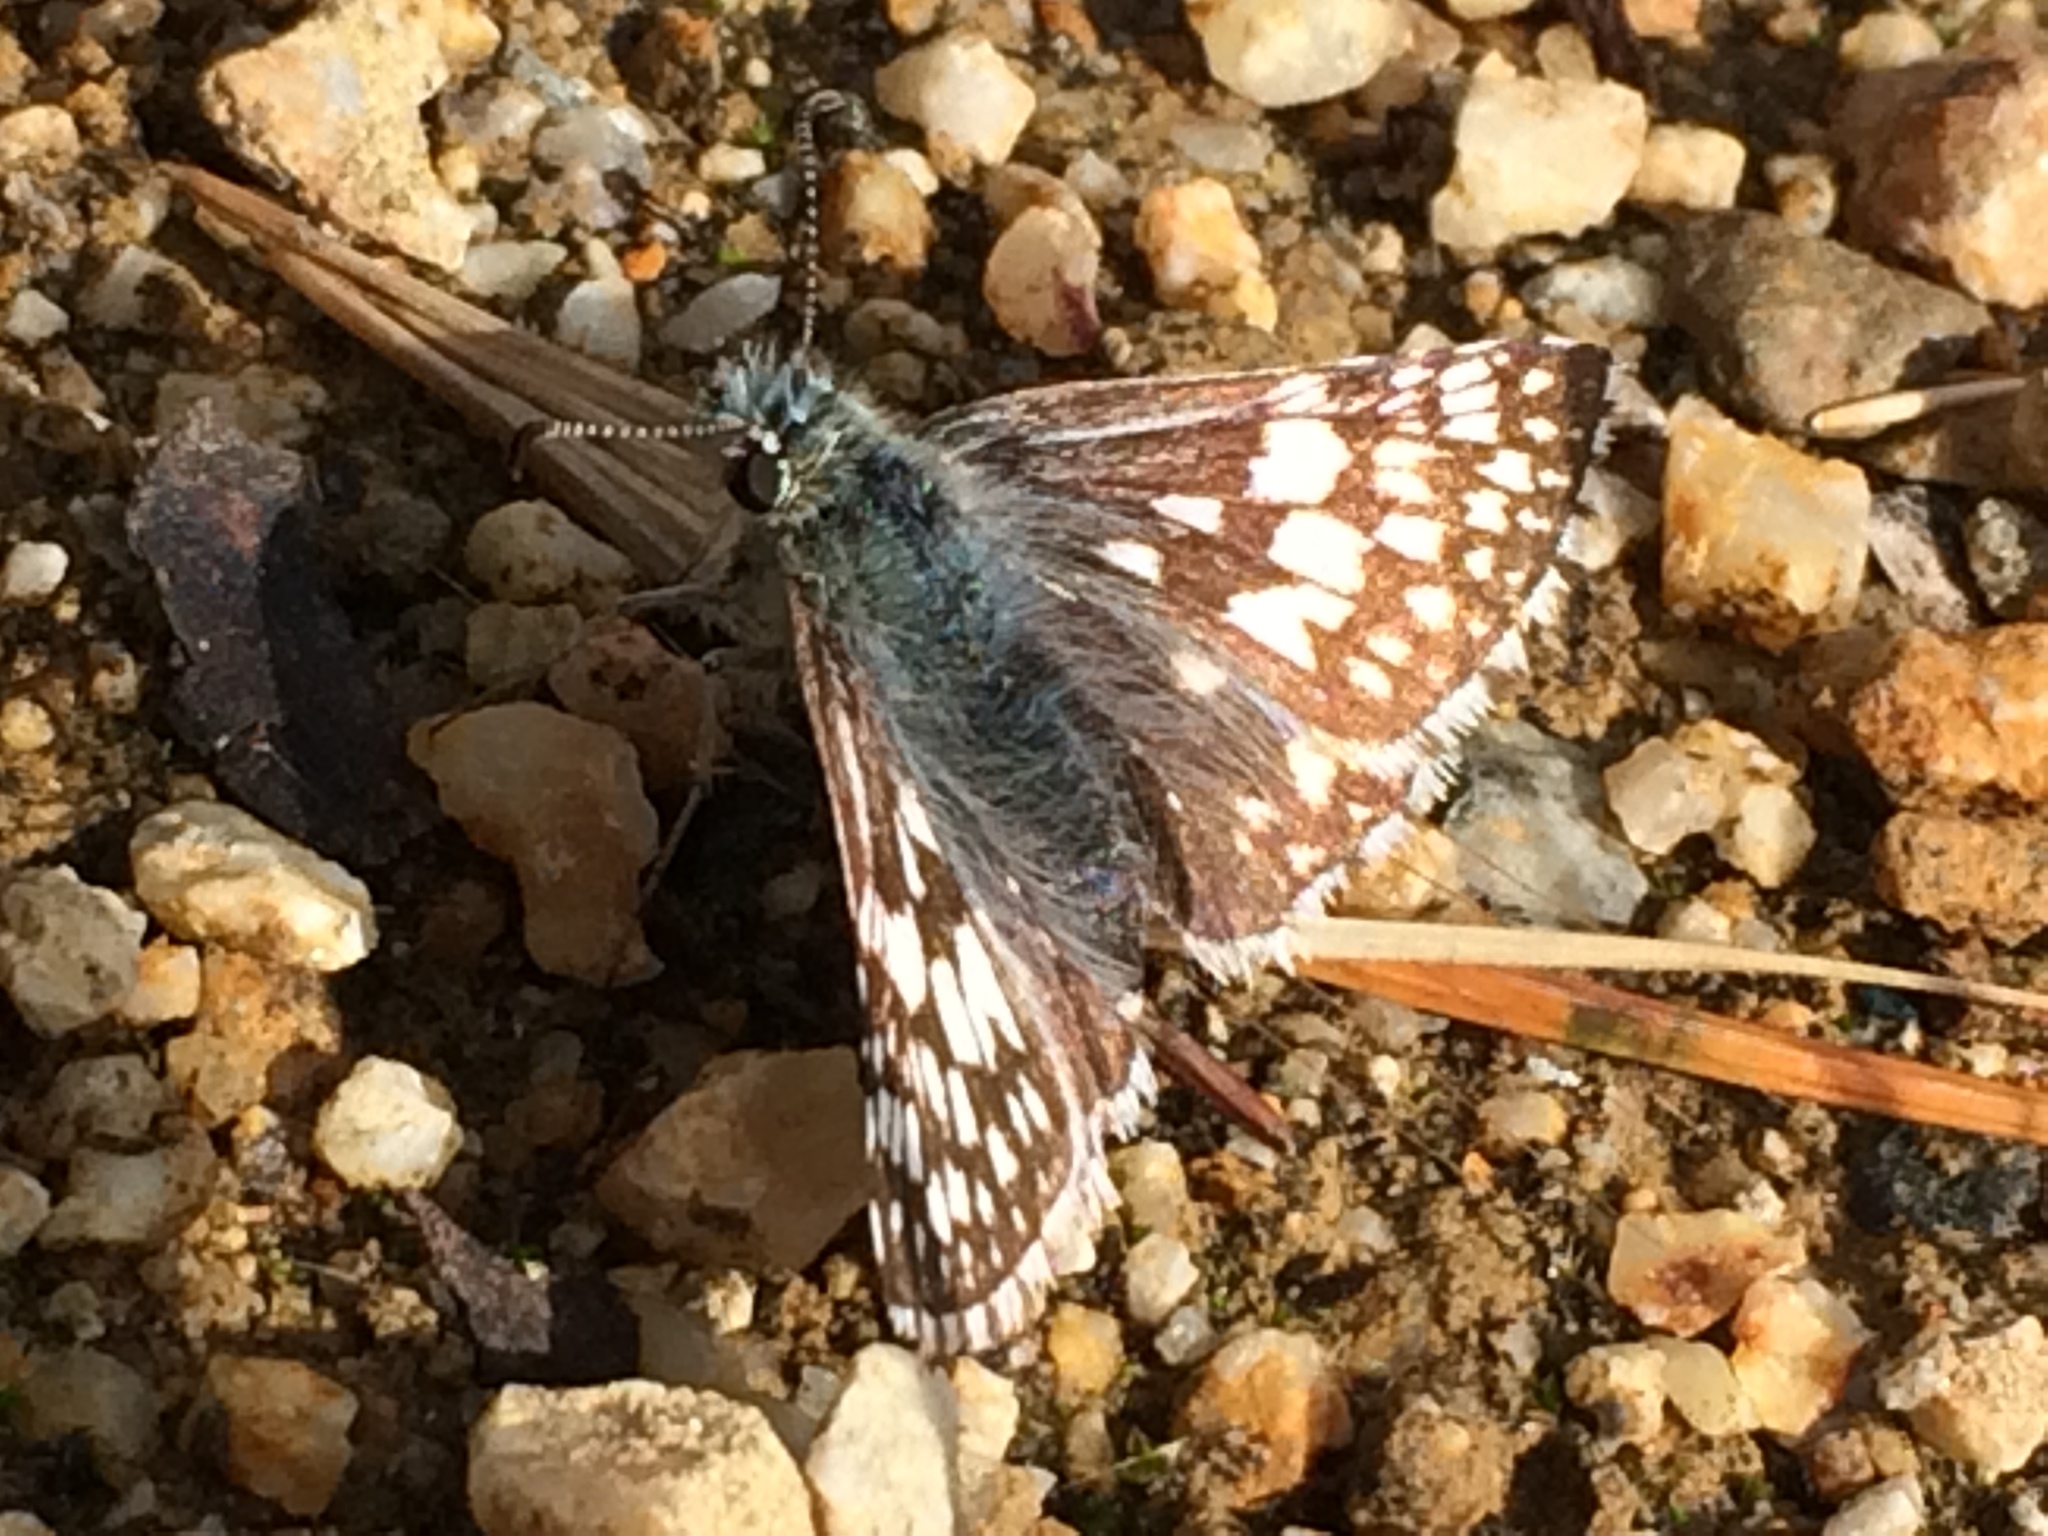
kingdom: Animalia
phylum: Arthropoda
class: Insecta
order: Lepidoptera
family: Hesperiidae
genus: Burnsius
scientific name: Burnsius communis
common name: Common checkered-skipper
